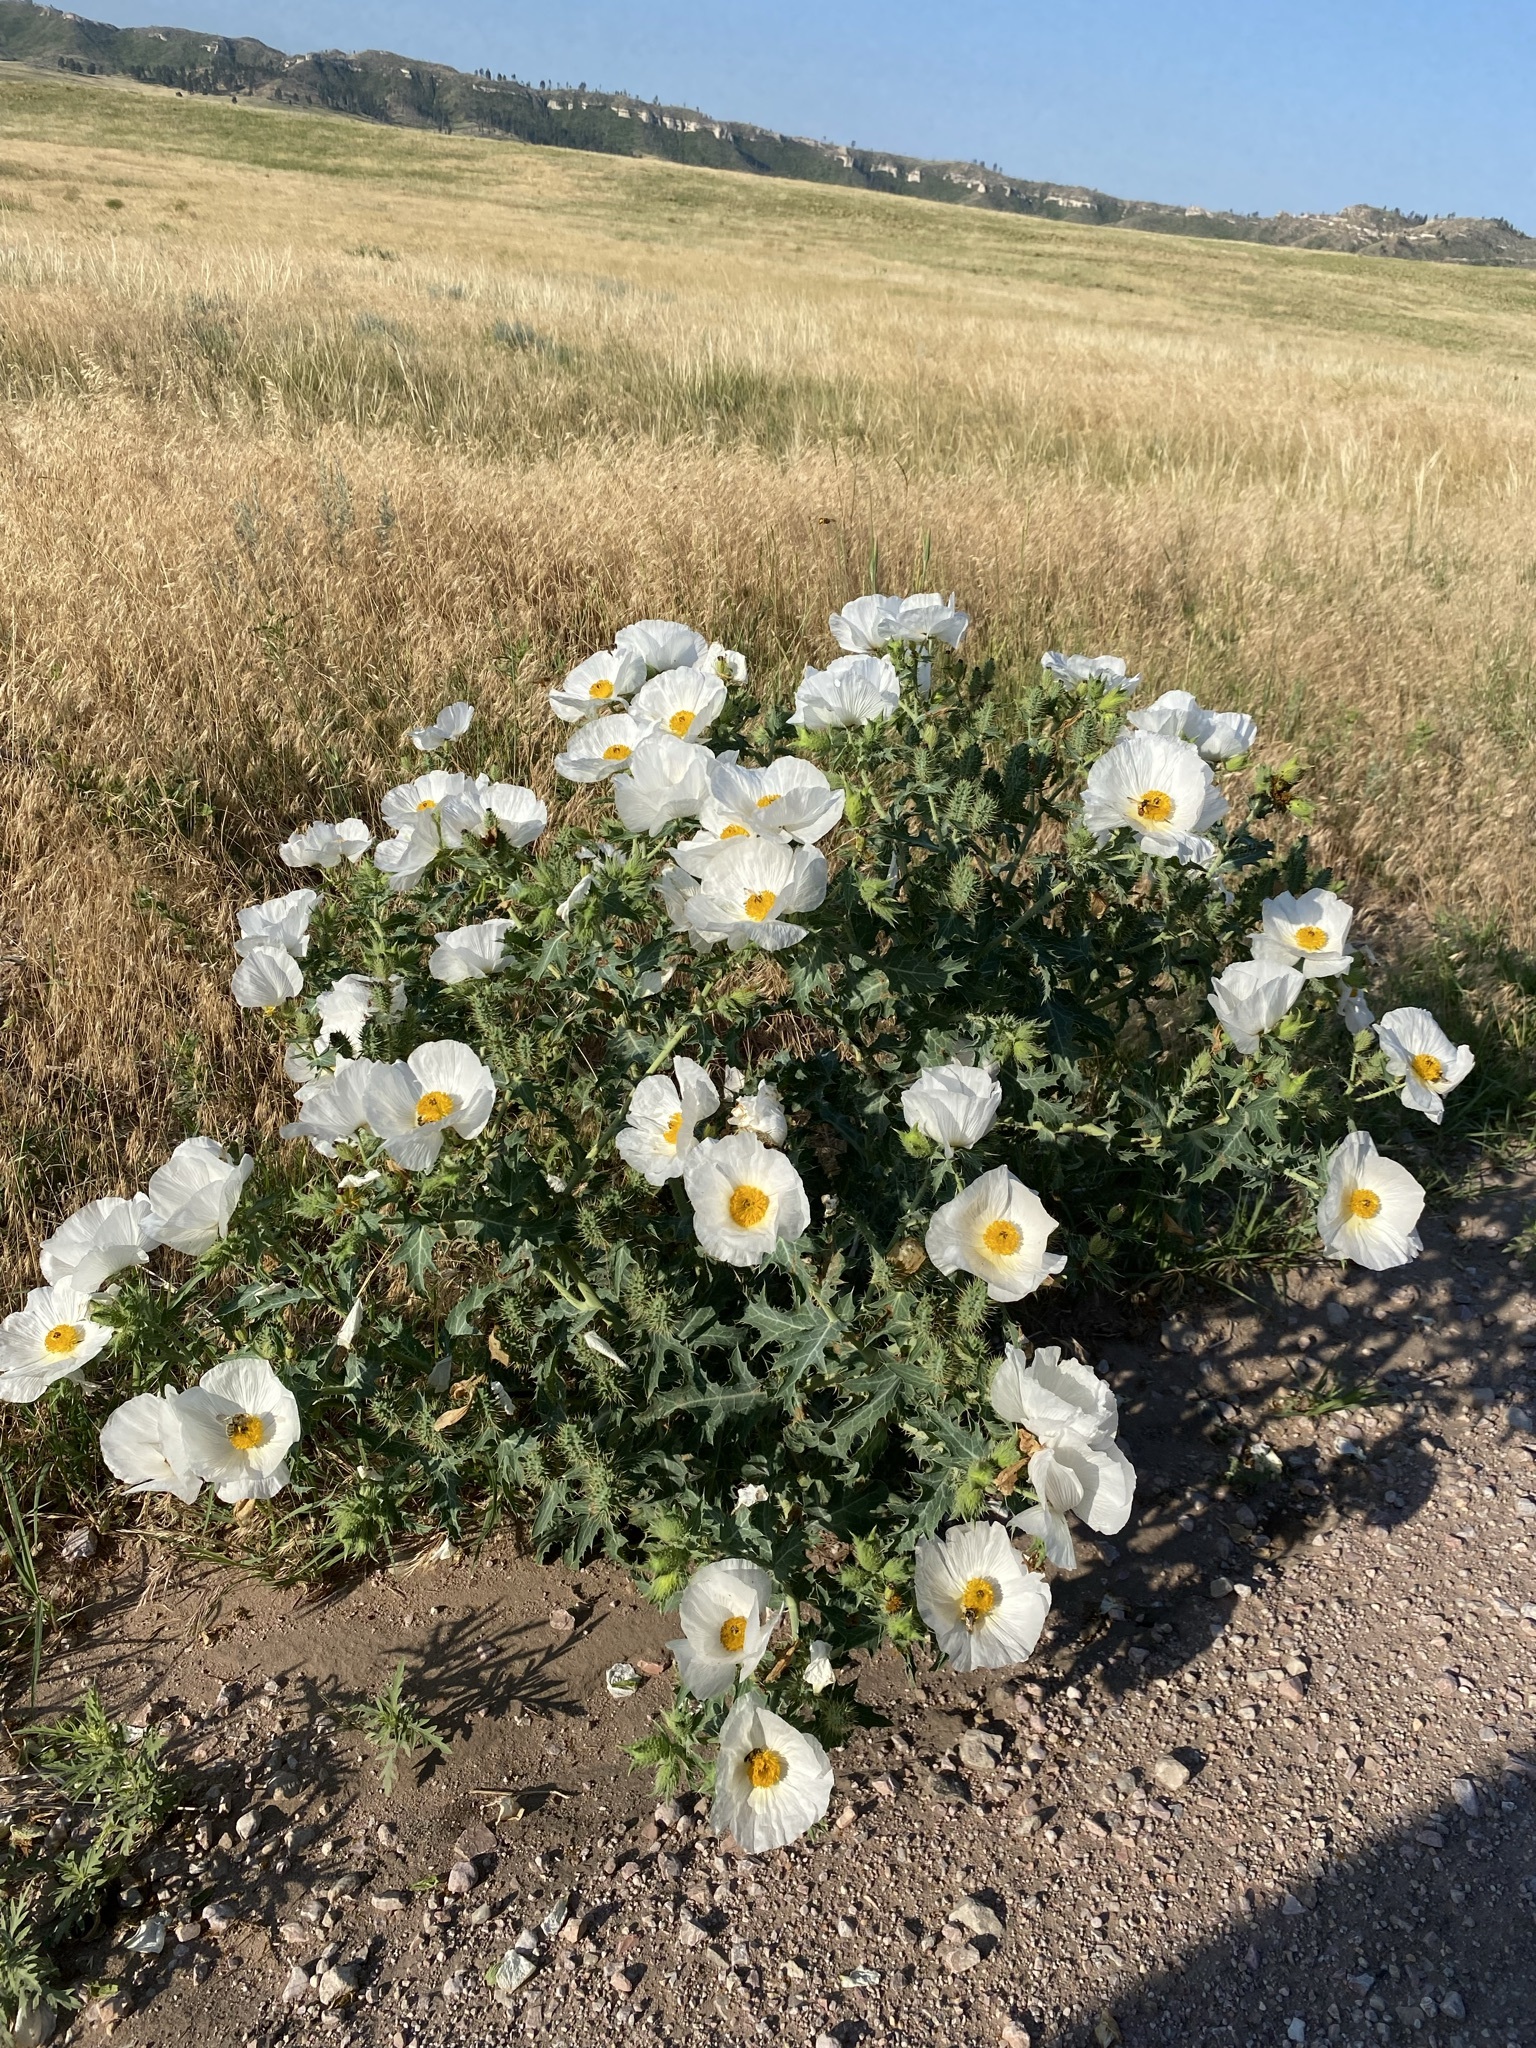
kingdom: Plantae
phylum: Tracheophyta
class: Magnoliopsida
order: Ranunculales
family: Papaveraceae
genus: Argemone
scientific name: Argemone polyanthemos
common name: Plains prickly-poppy
